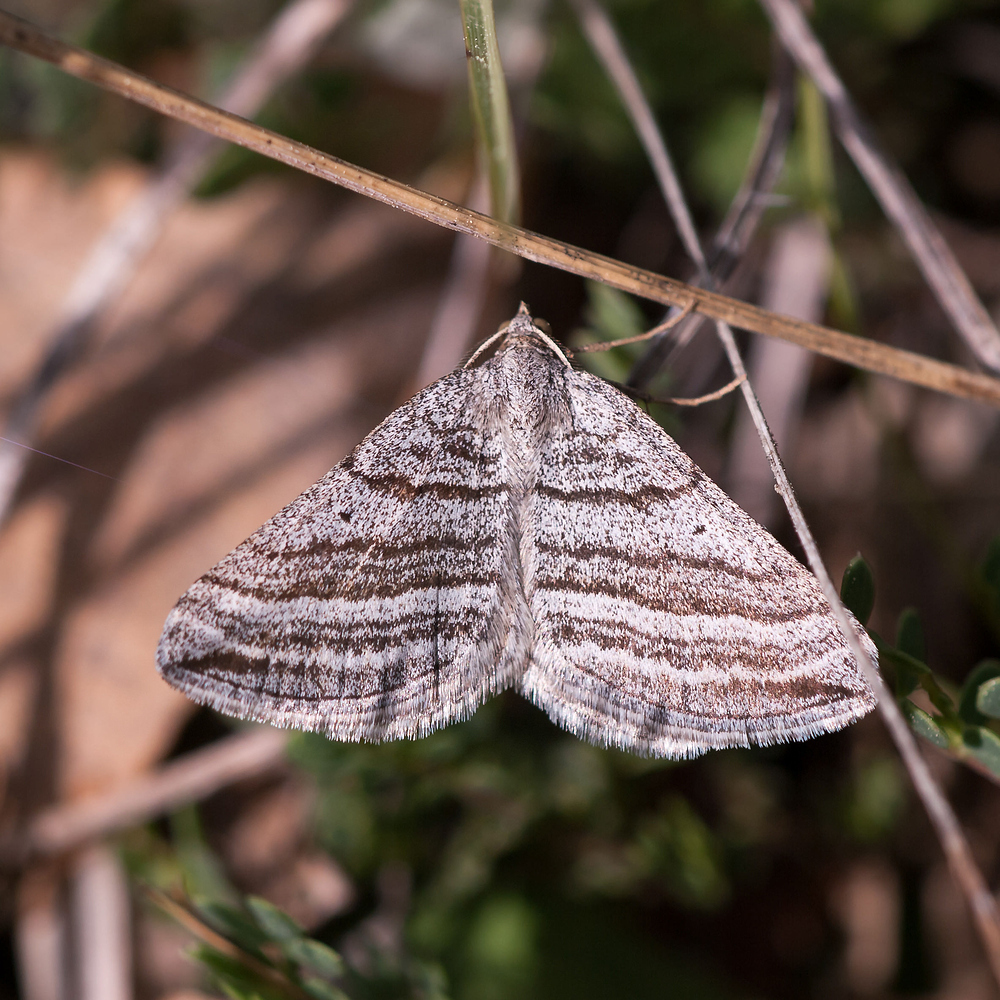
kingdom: Animalia
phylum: Arthropoda
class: Insecta
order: Lepidoptera
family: Geometridae
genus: Scotopteryx
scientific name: Scotopteryx coarctaria
